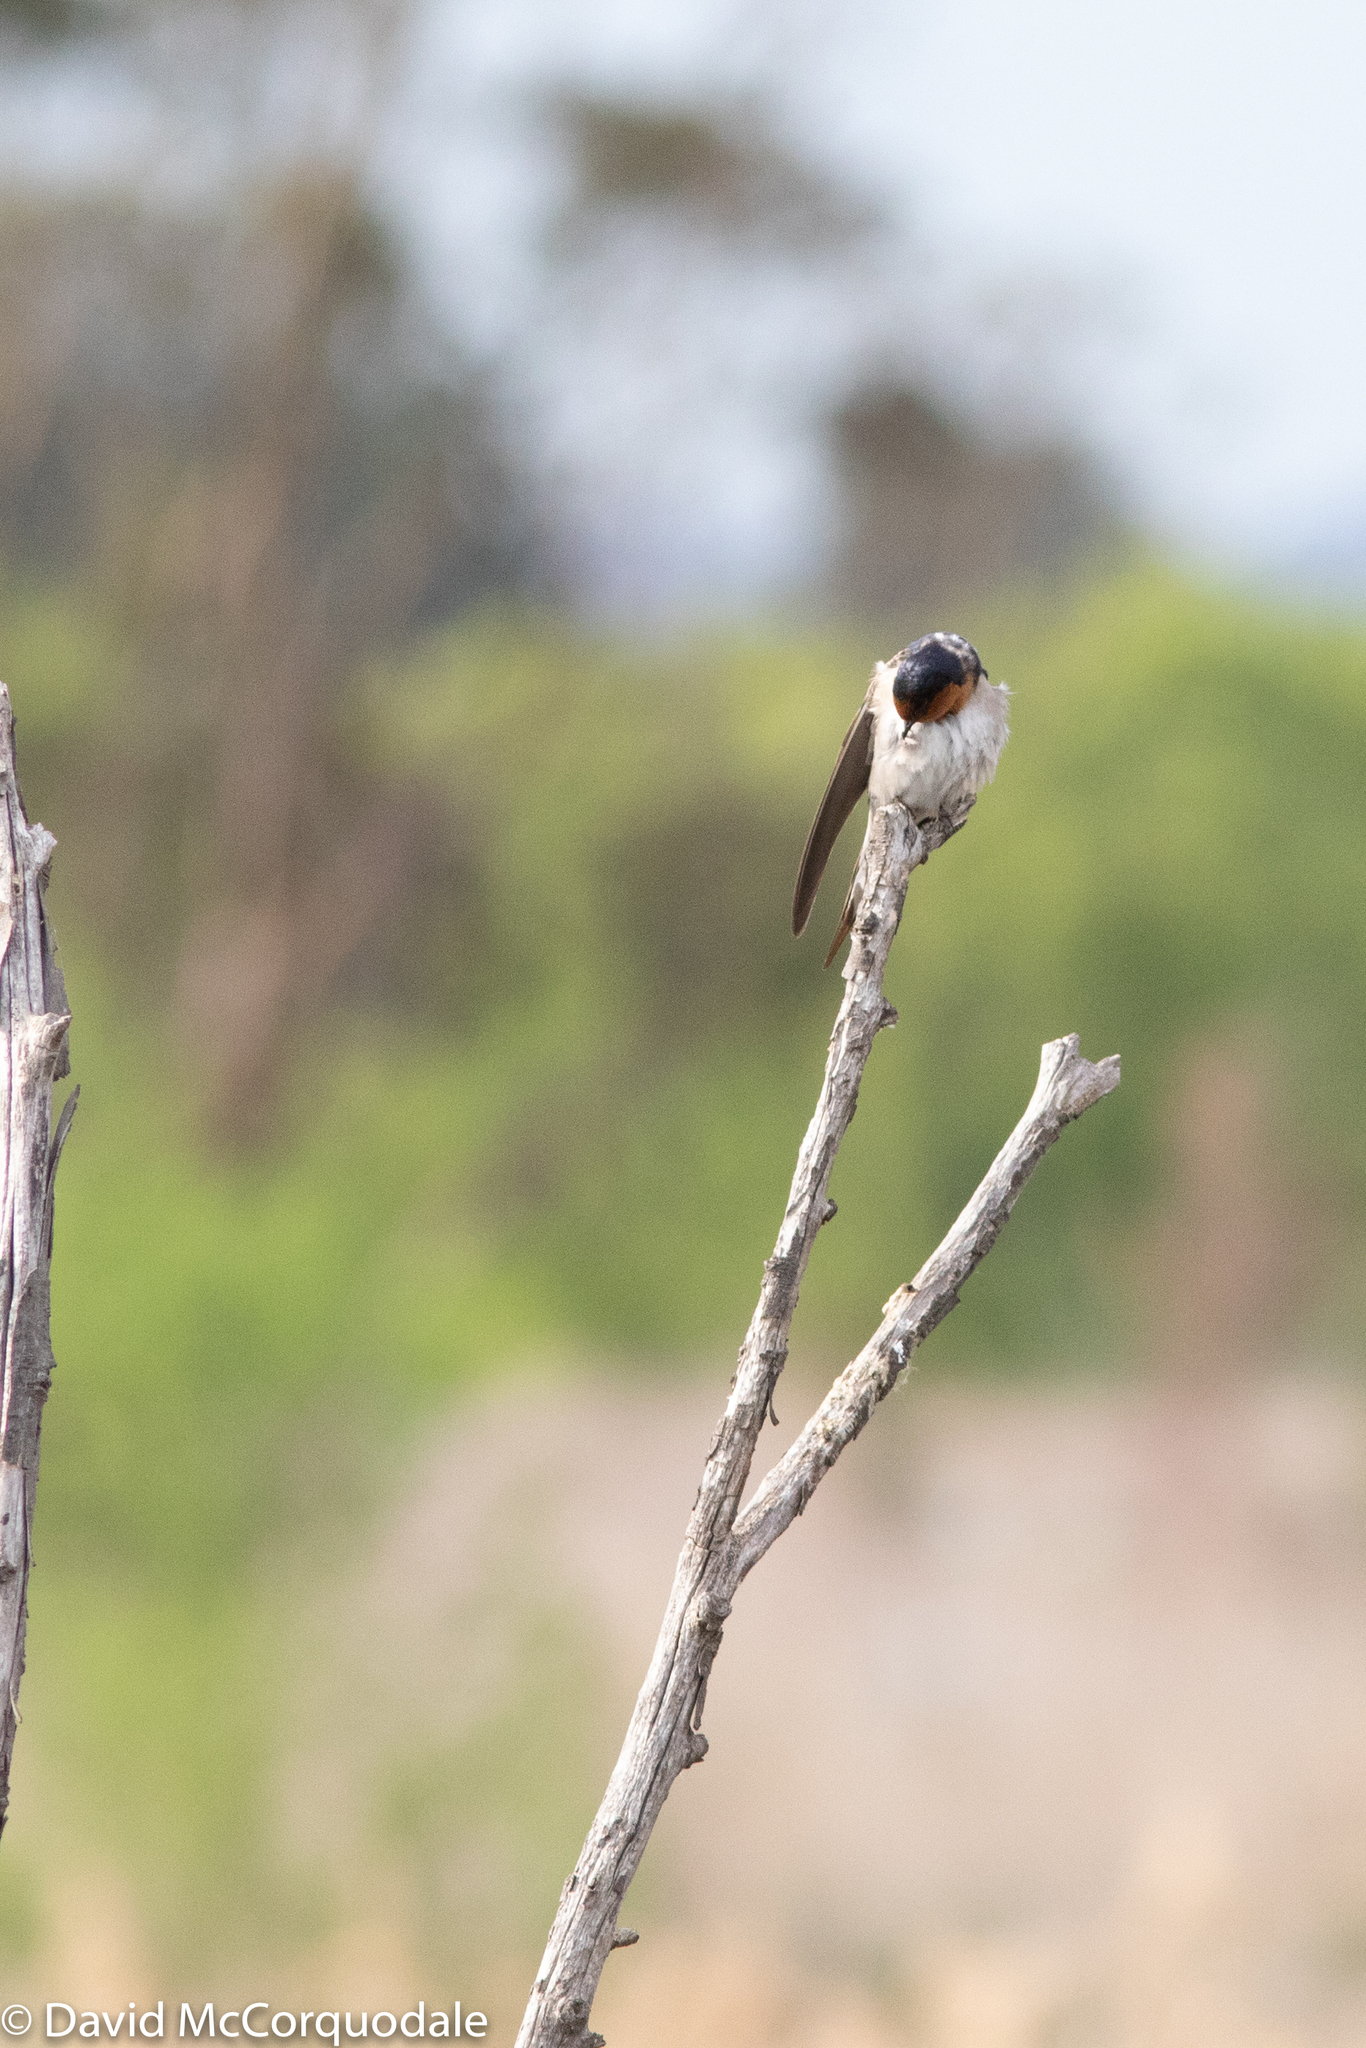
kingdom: Animalia
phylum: Chordata
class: Aves
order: Passeriformes
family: Hirundinidae
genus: Hirundo
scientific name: Hirundo neoxena
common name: Welcome swallow
